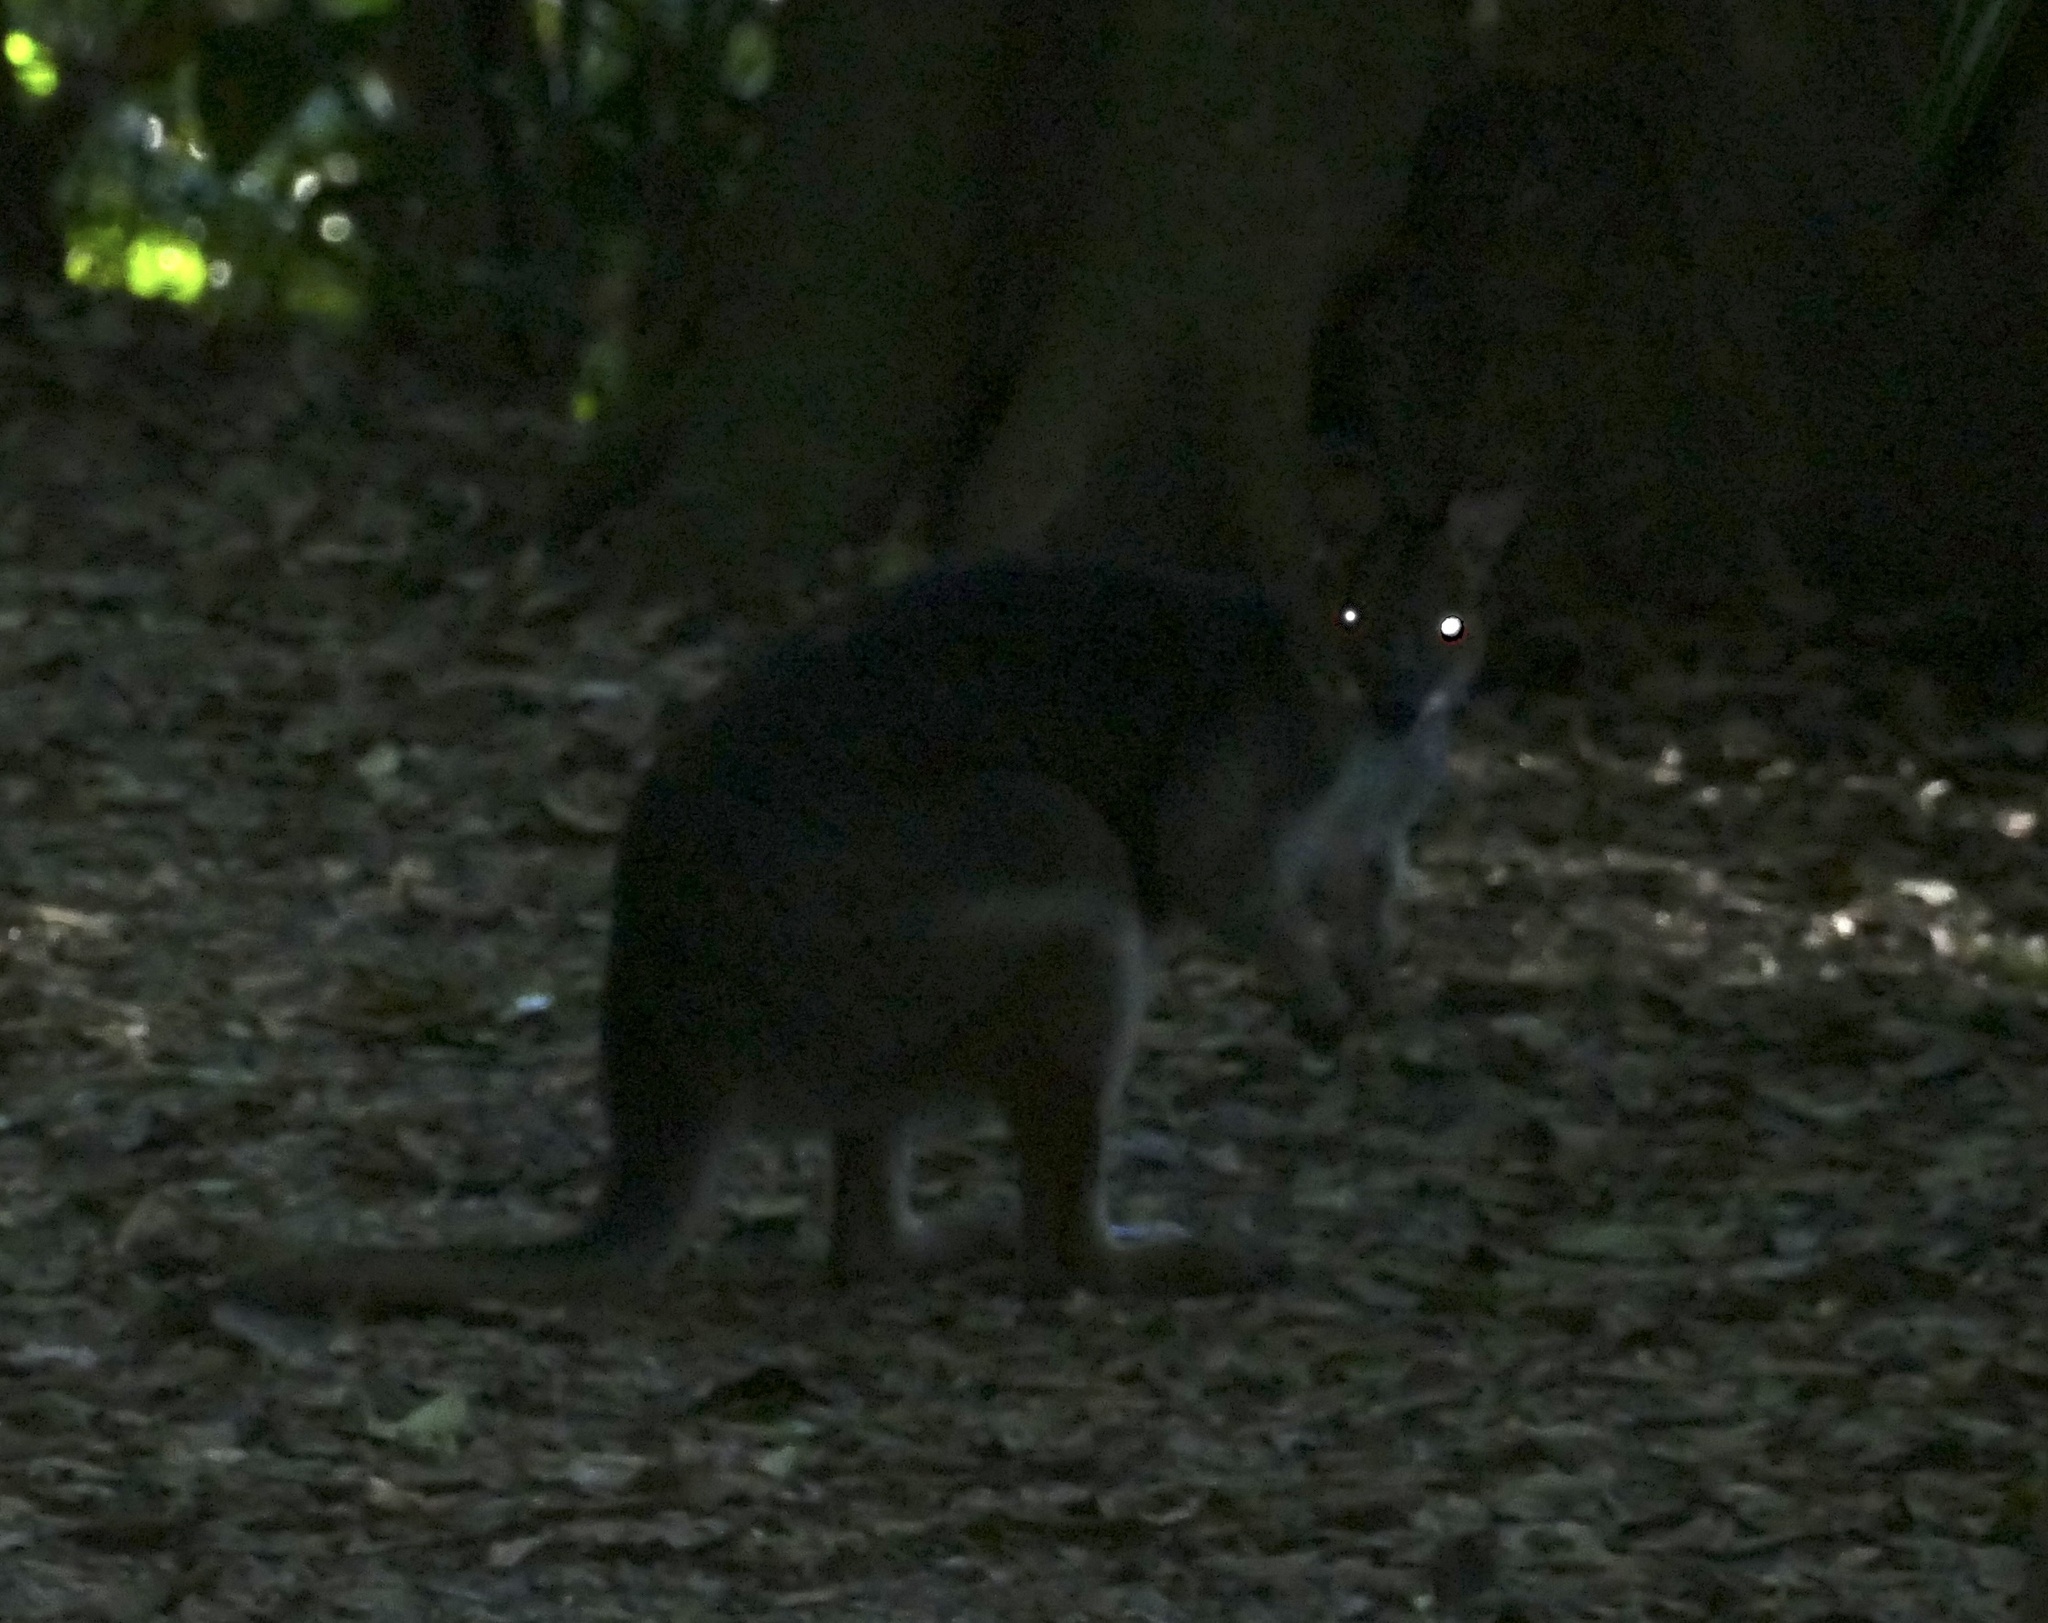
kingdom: Animalia
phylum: Chordata
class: Mammalia
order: Diprotodontia
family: Macropodidae
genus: Thylogale
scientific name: Thylogale stigmatica
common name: Red-legged pademelon
